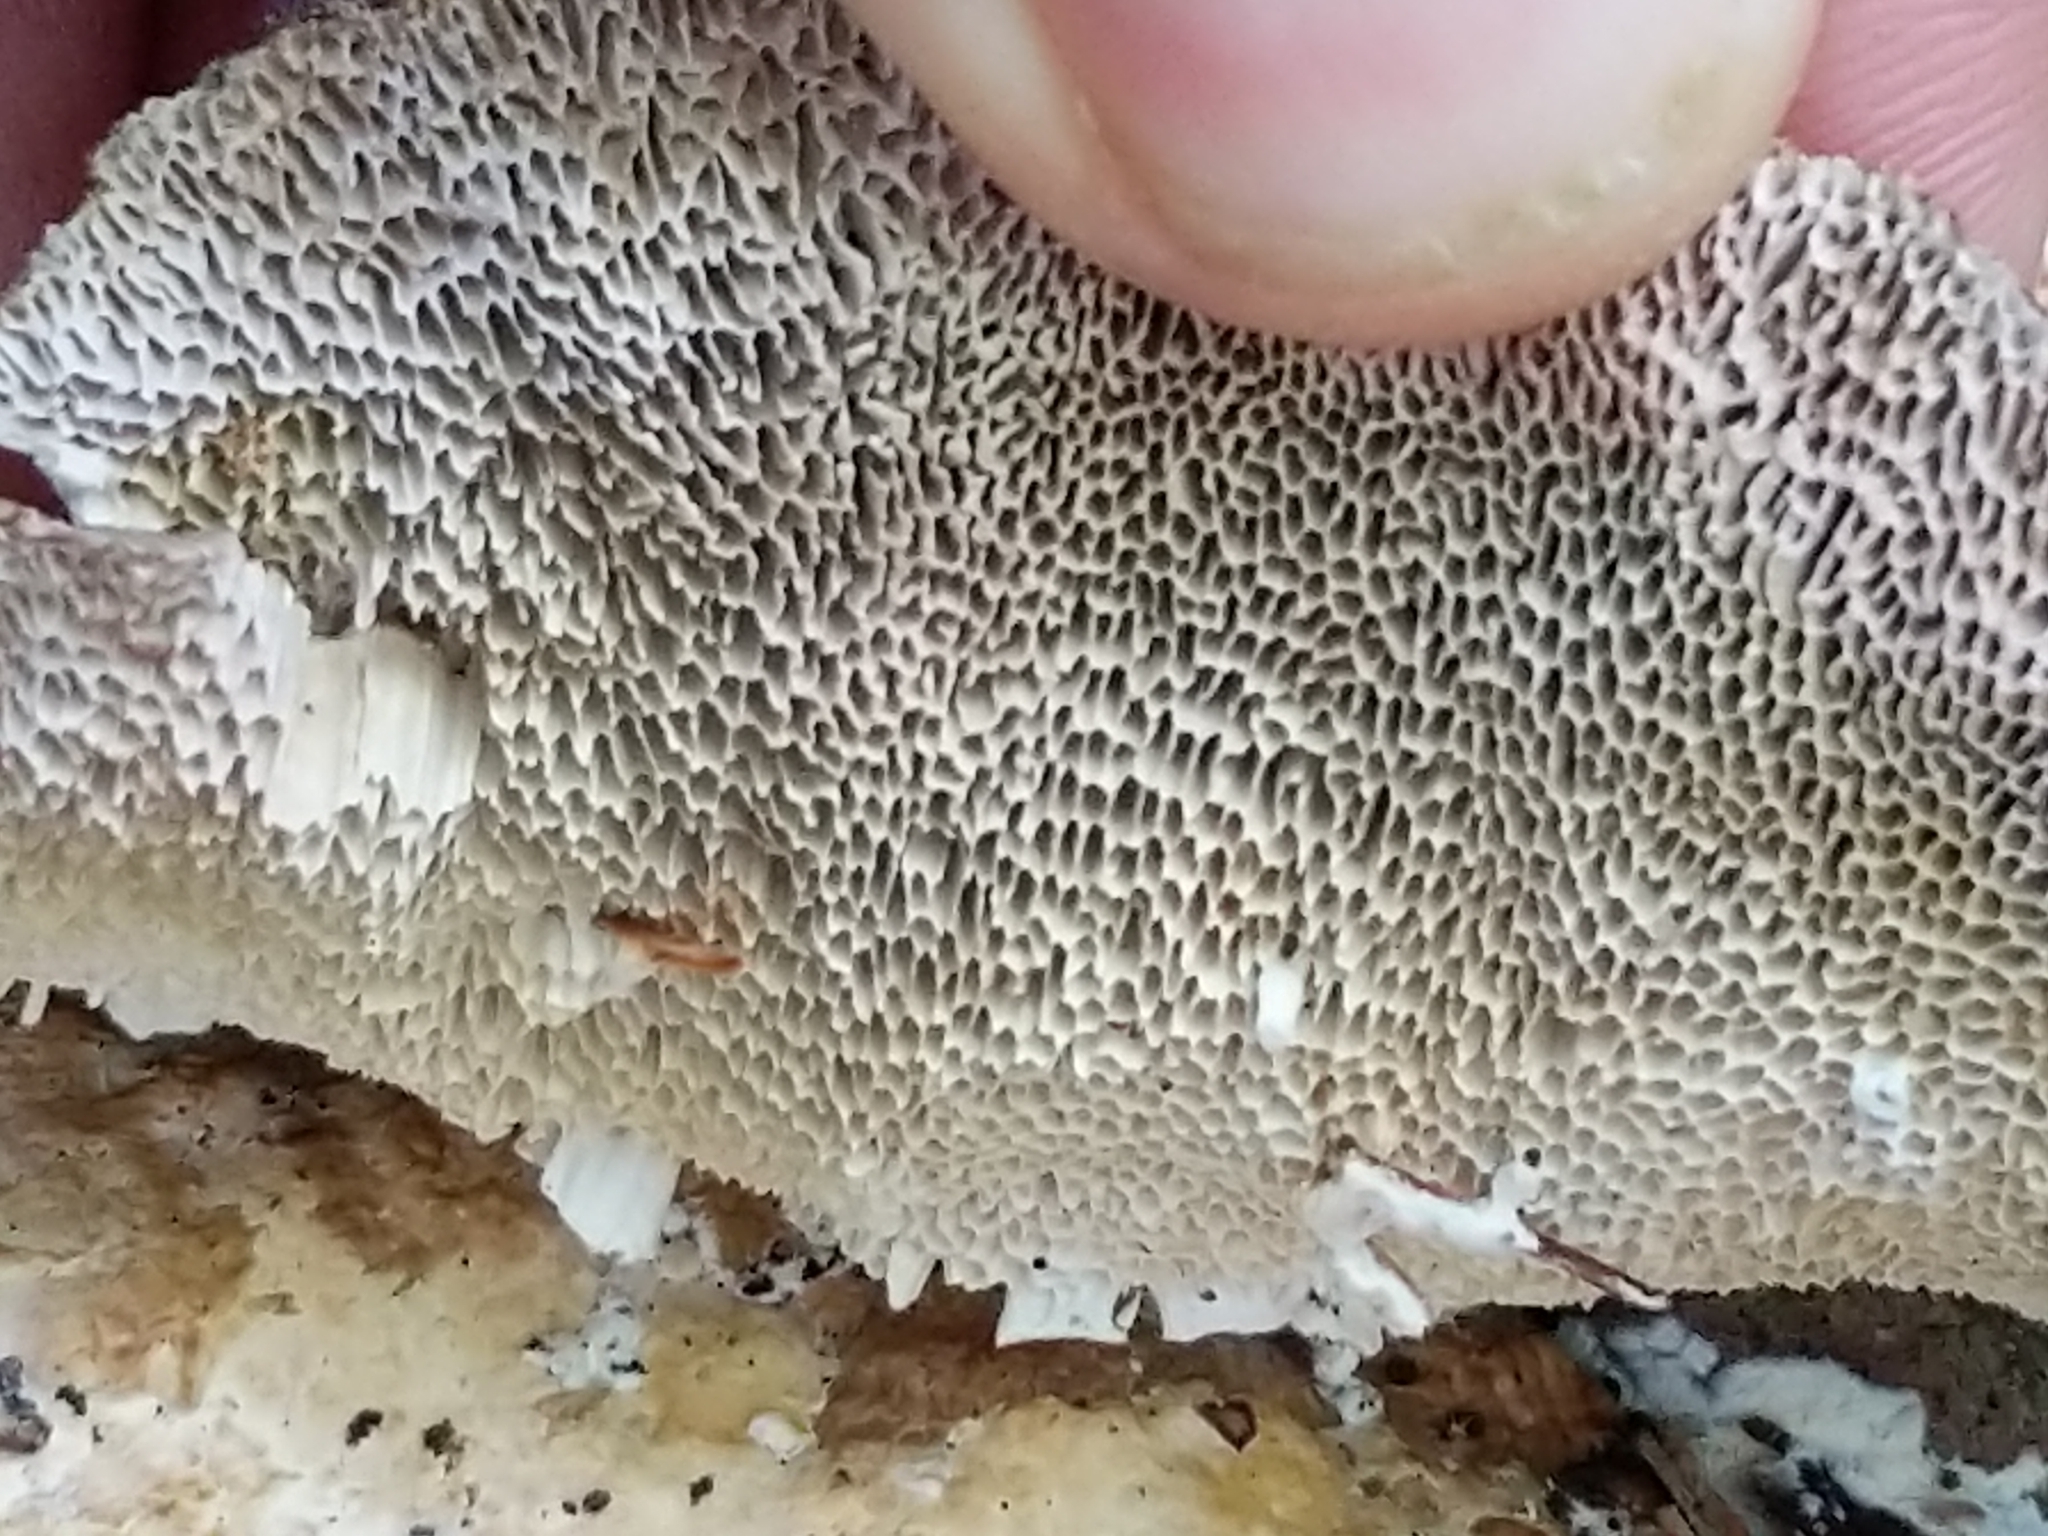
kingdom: Fungi
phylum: Basidiomycota
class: Agaricomycetes
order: Polyporales
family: Polyporaceae
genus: Daedaleopsis
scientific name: Daedaleopsis confragosa
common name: Blushing bracket
